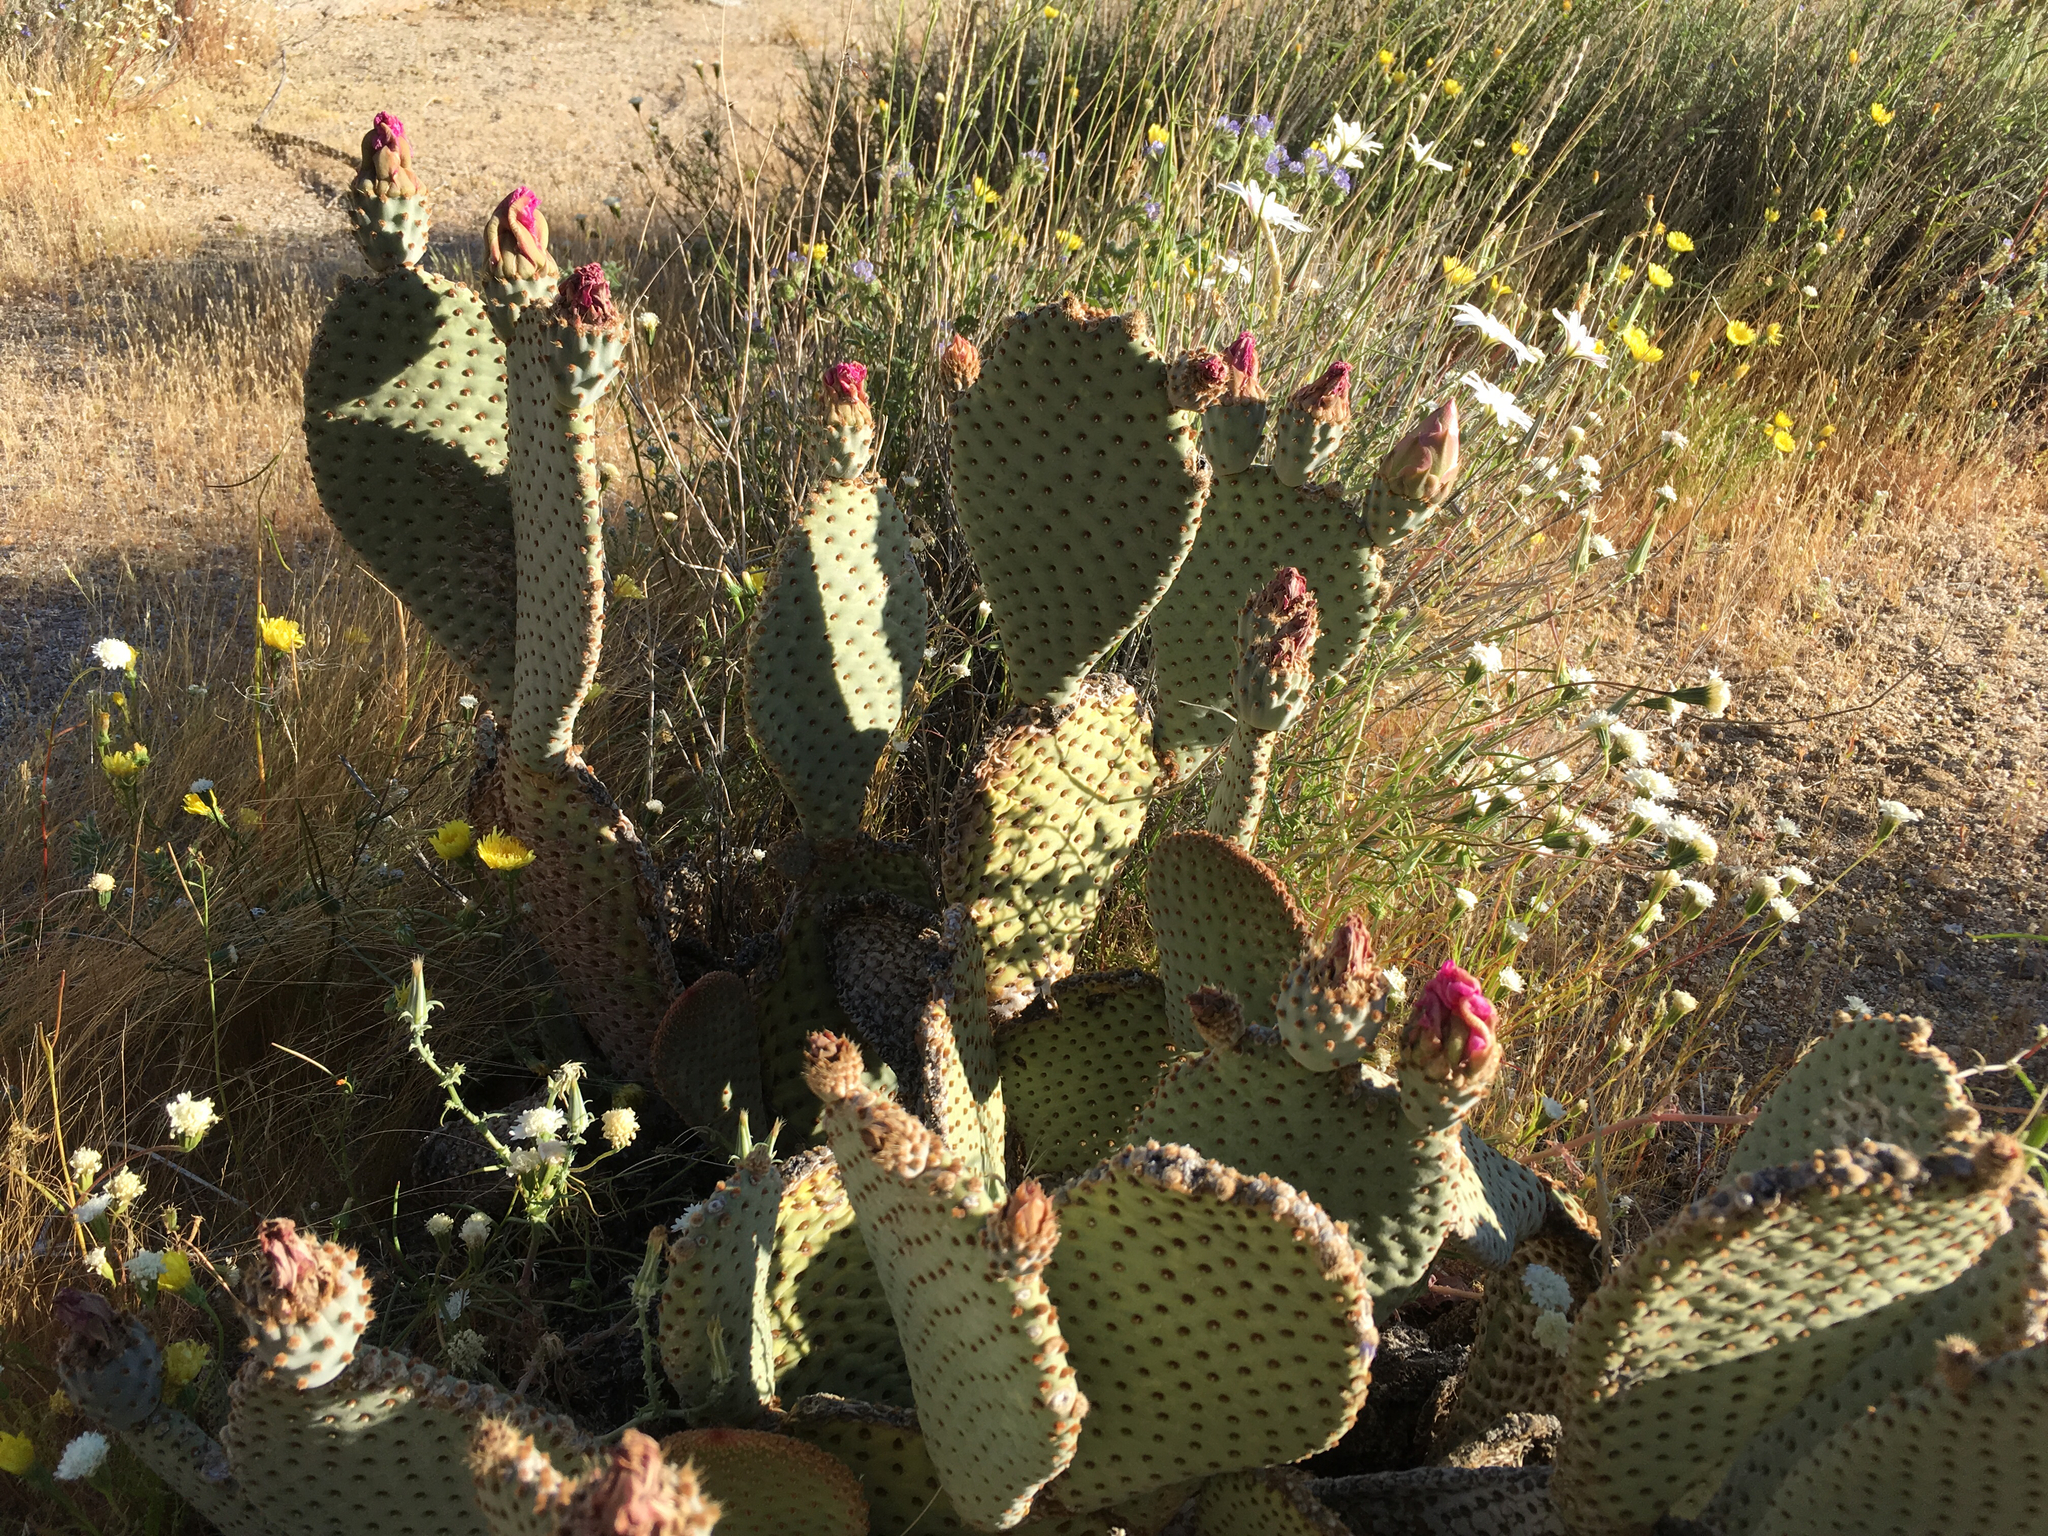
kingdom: Plantae
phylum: Tracheophyta
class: Magnoliopsida
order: Caryophyllales
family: Cactaceae
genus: Opuntia
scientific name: Opuntia basilaris
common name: Beavertail prickly-pear
